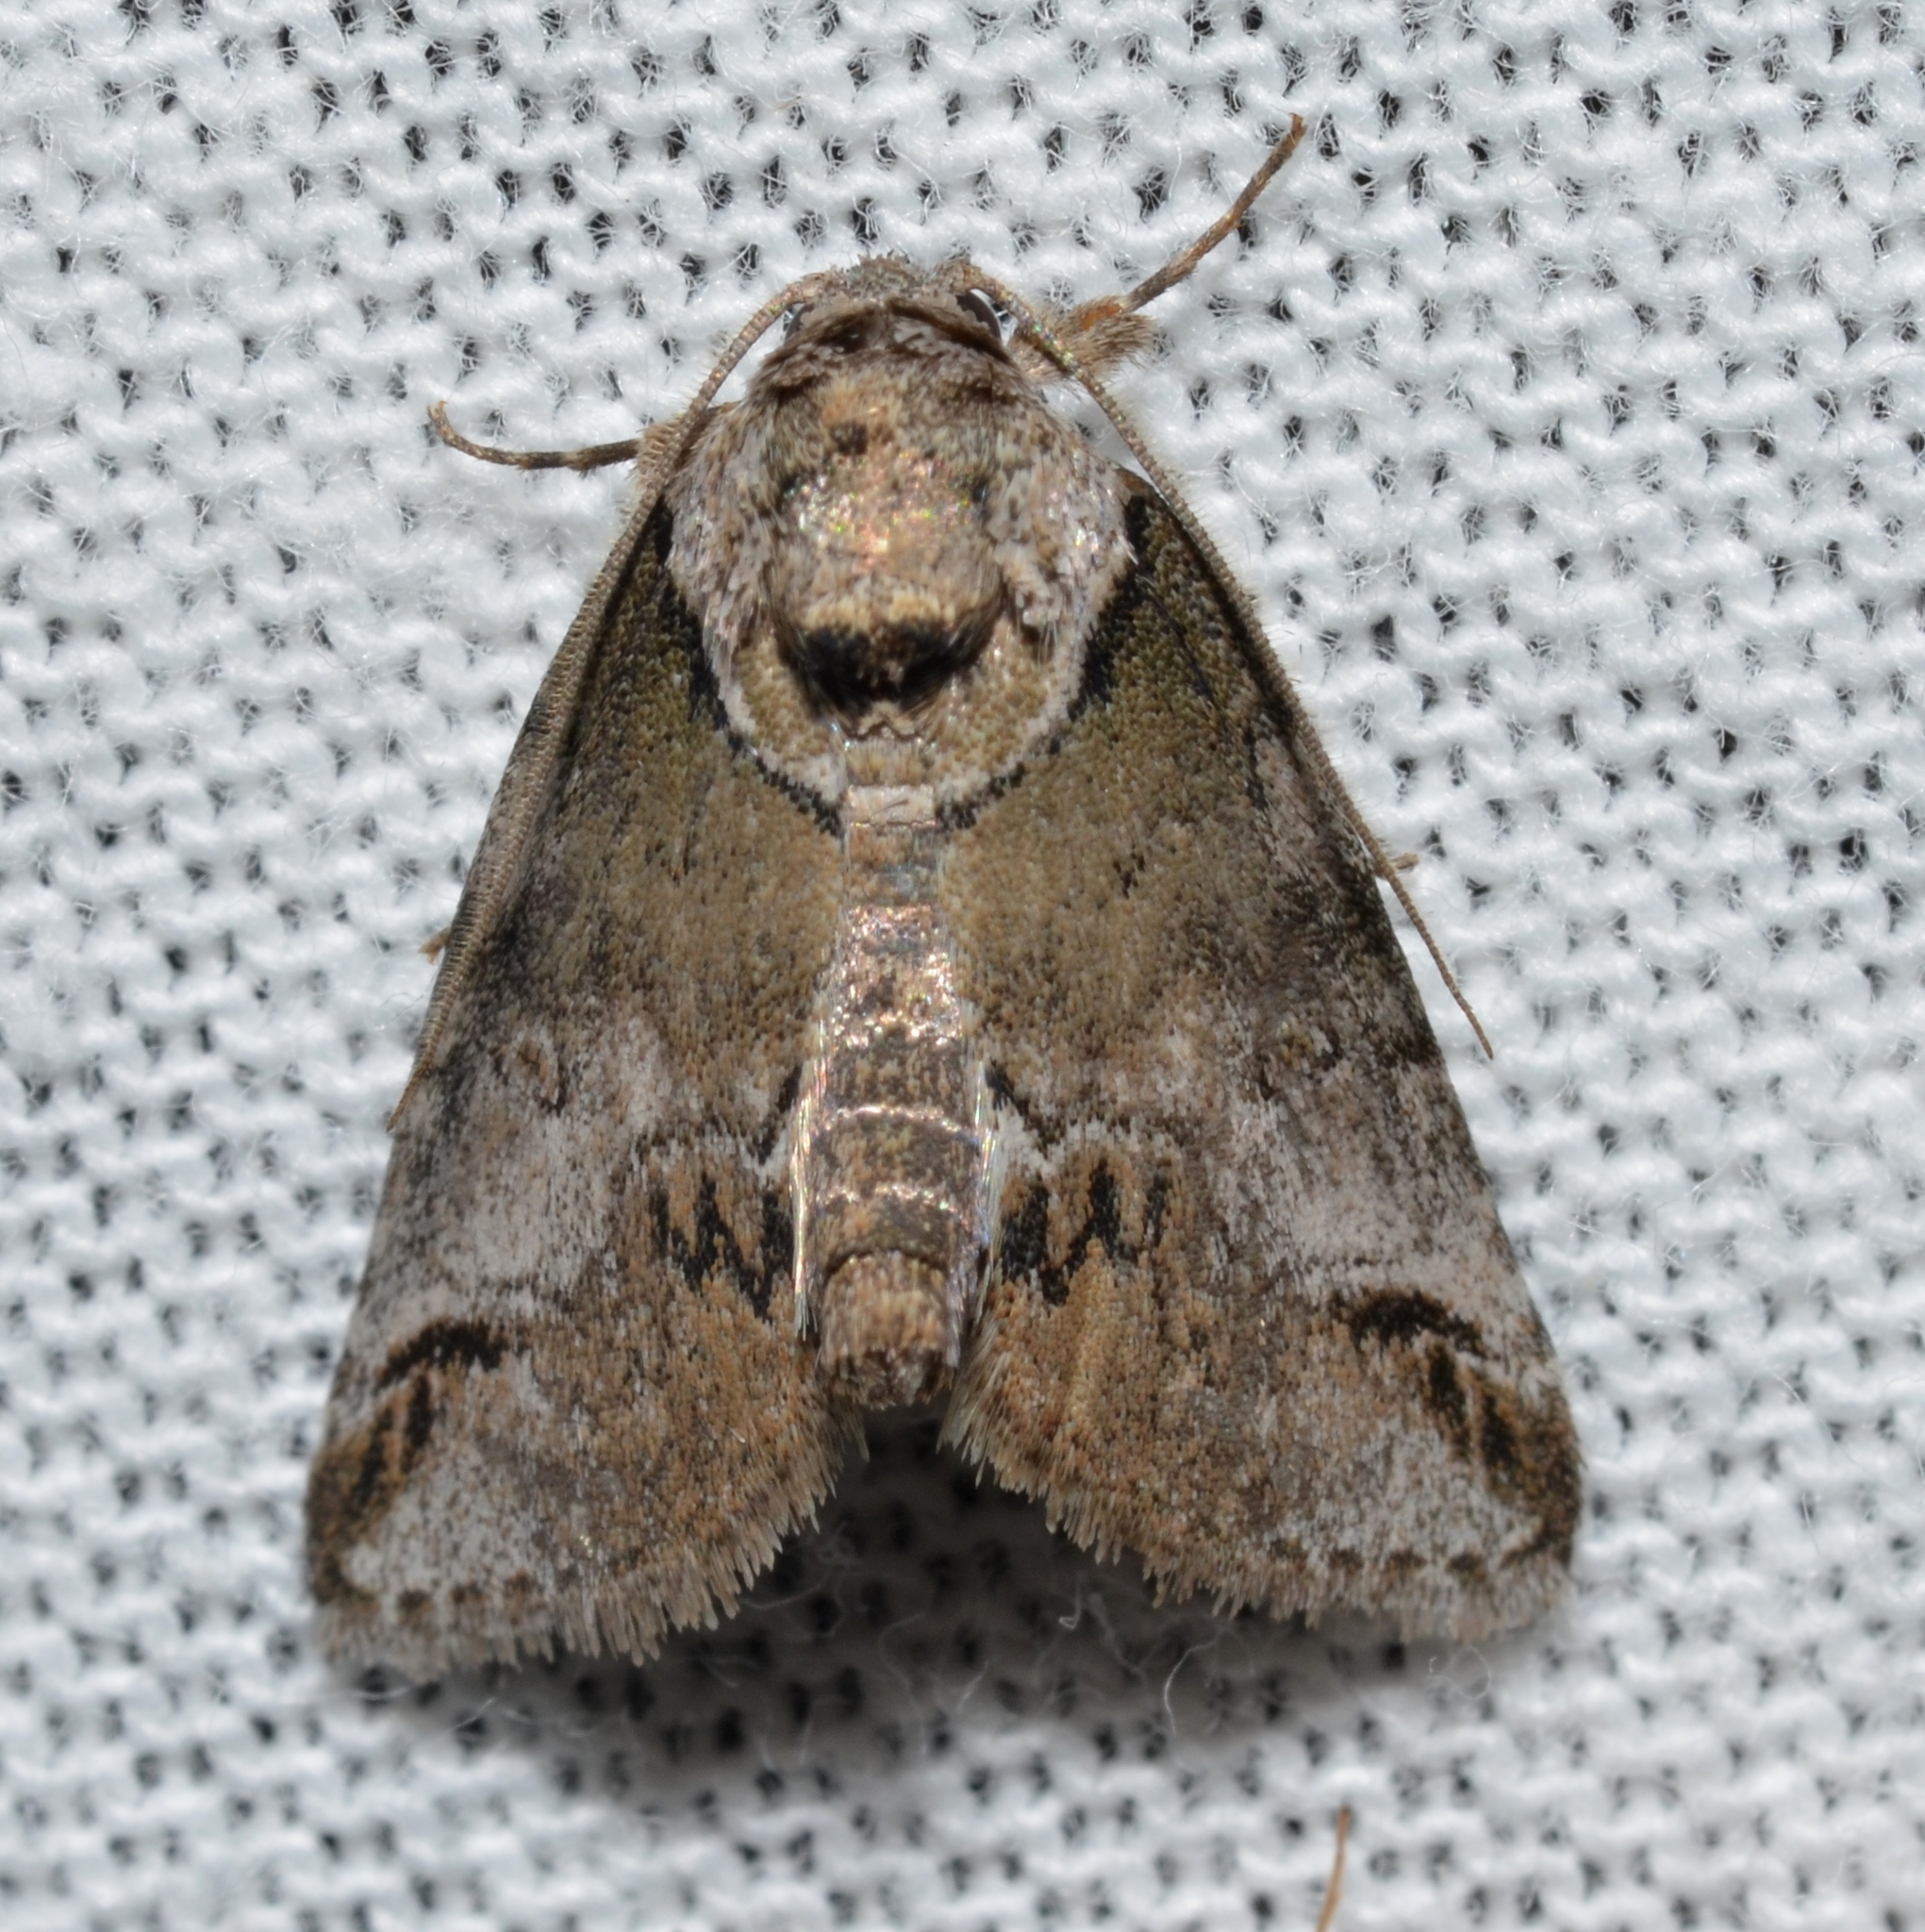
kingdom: Animalia
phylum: Arthropoda
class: Insecta
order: Lepidoptera
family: Nolidae
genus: Baileya
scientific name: Baileya australis
